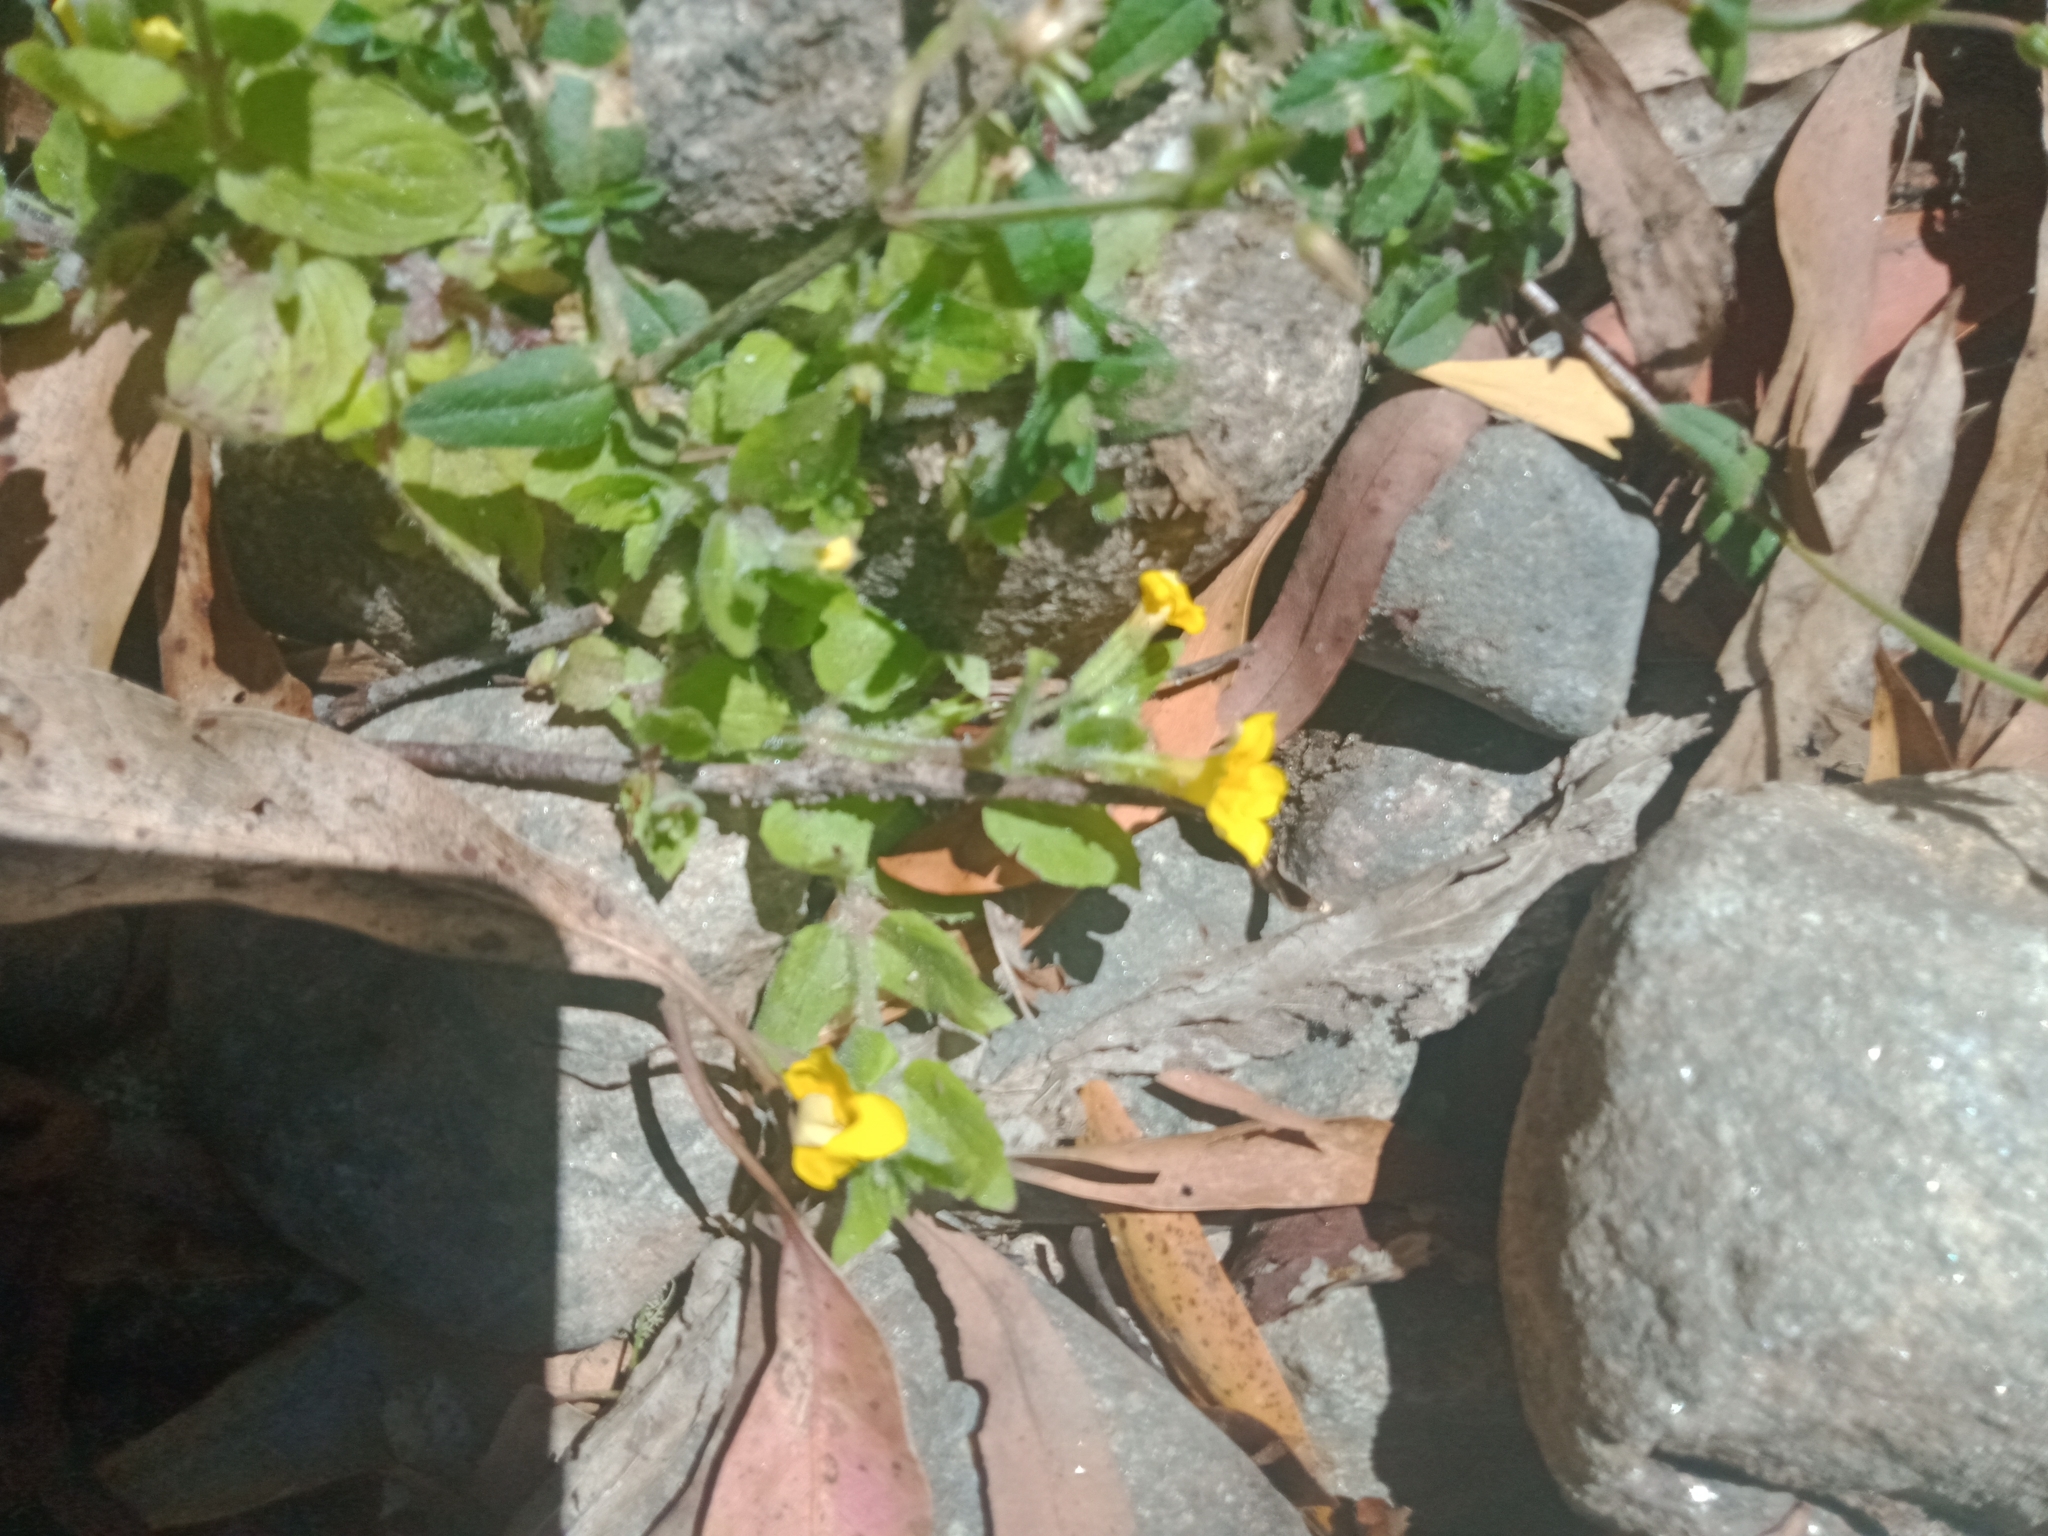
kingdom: Plantae
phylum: Tracheophyta
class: Magnoliopsida
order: Lamiales
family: Phrymaceae
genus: Erythranthe
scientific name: Erythranthe moschata
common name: Muskflower
